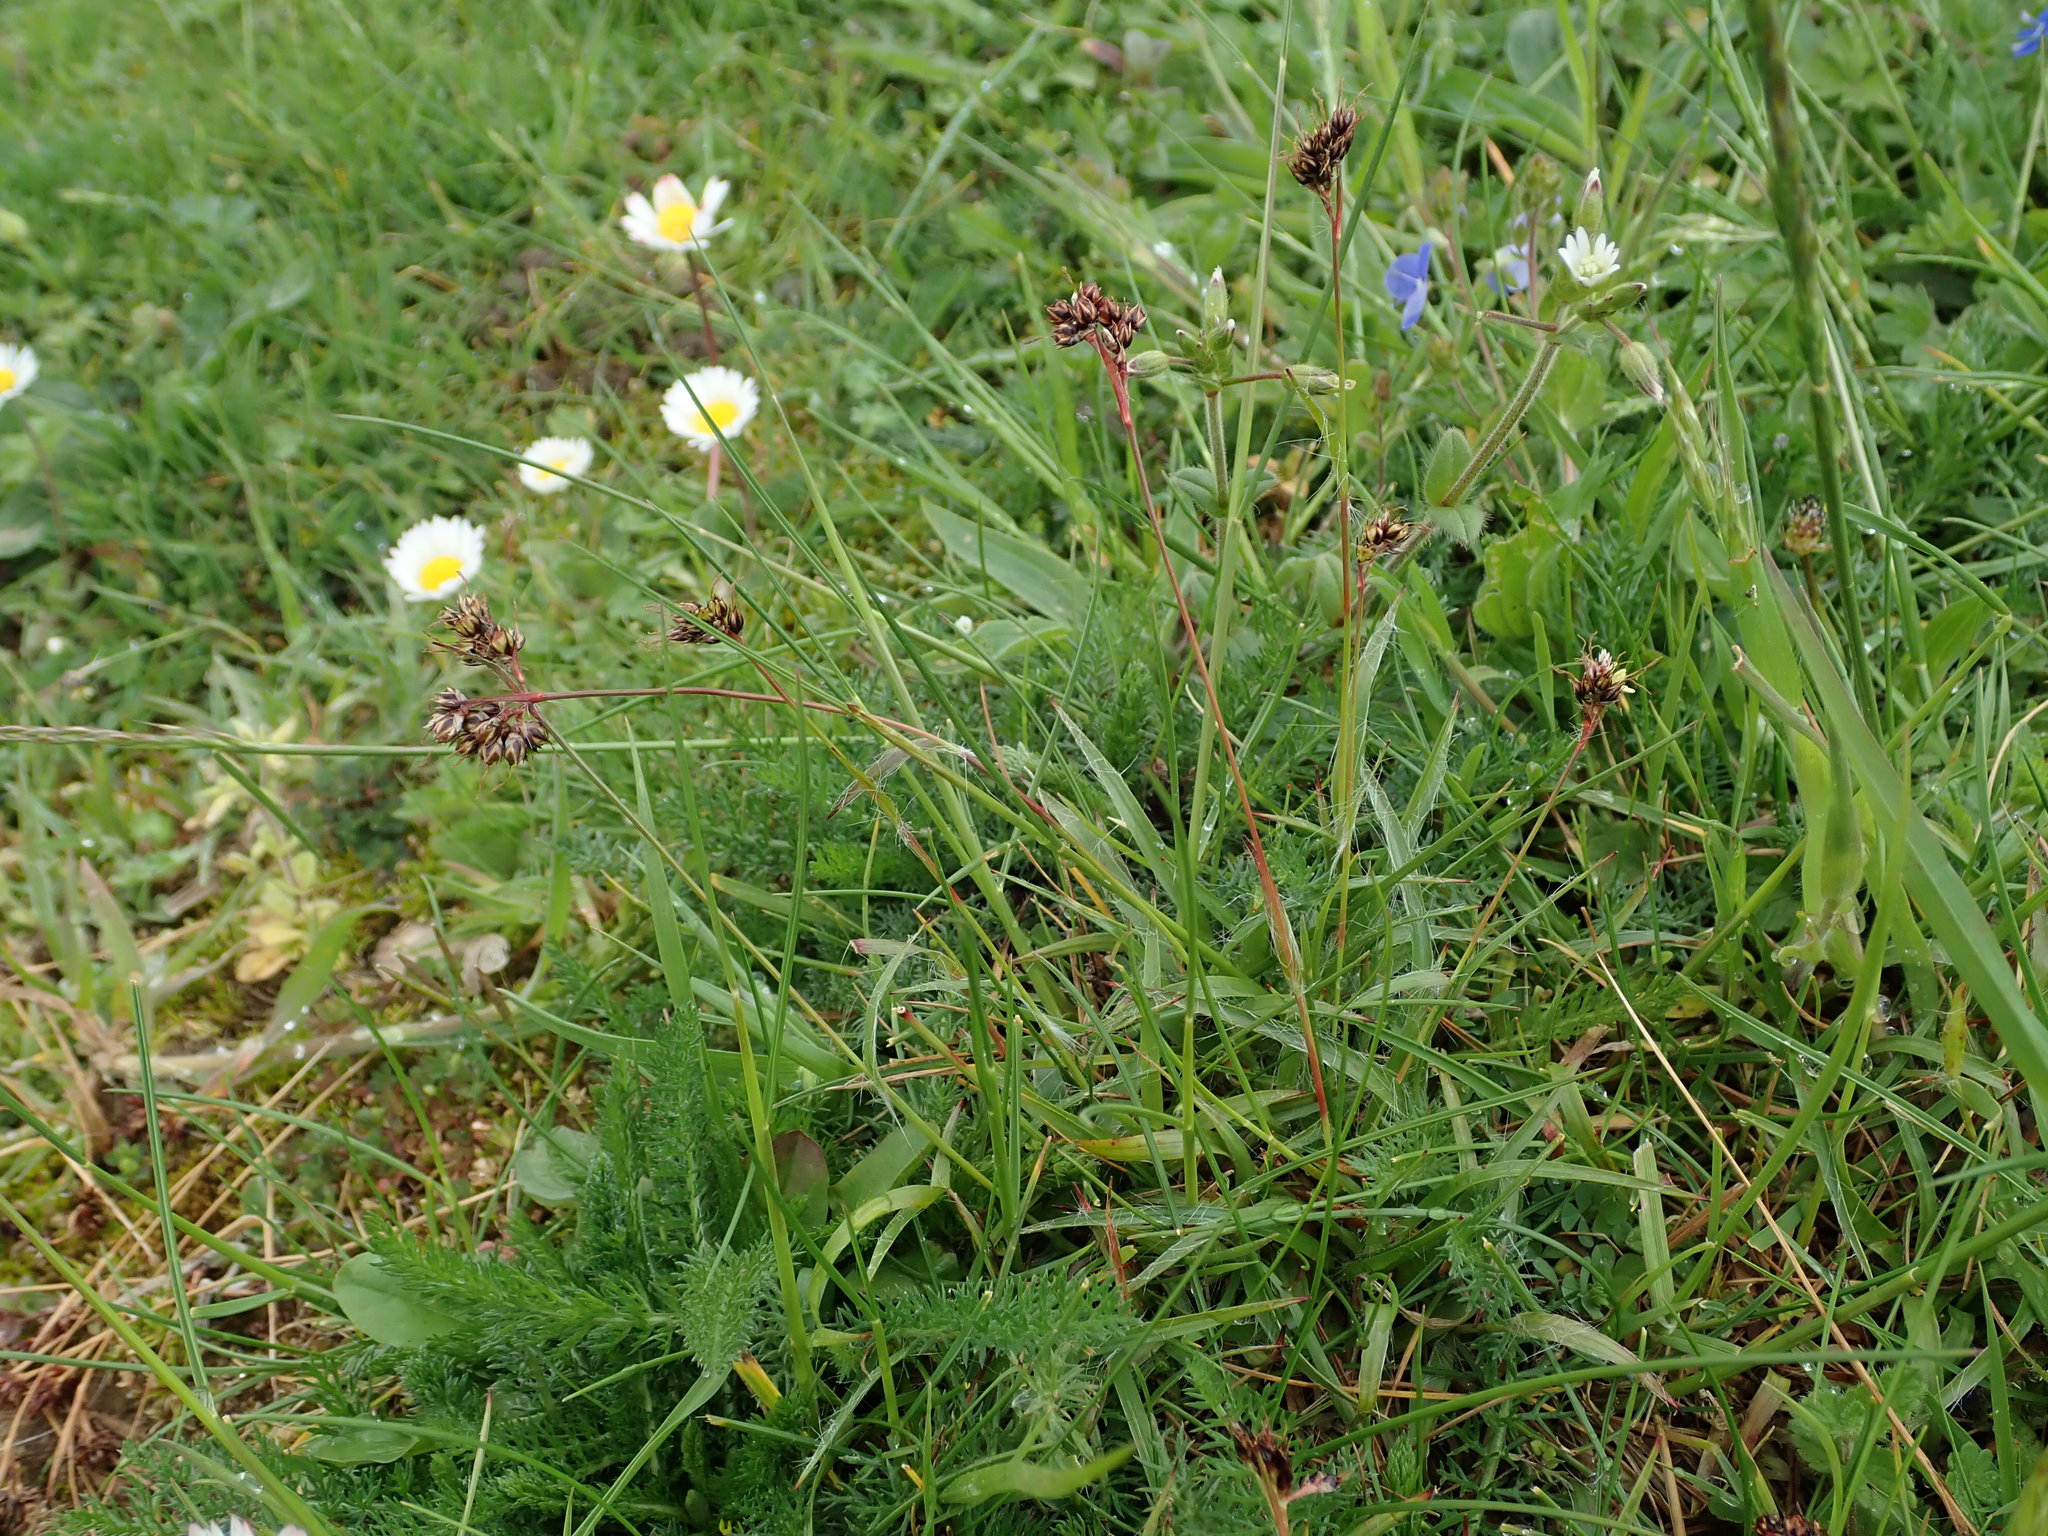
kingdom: Plantae
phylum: Tracheophyta
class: Liliopsida
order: Poales
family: Juncaceae
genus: Luzula
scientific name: Luzula campestris
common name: Field wood-rush
